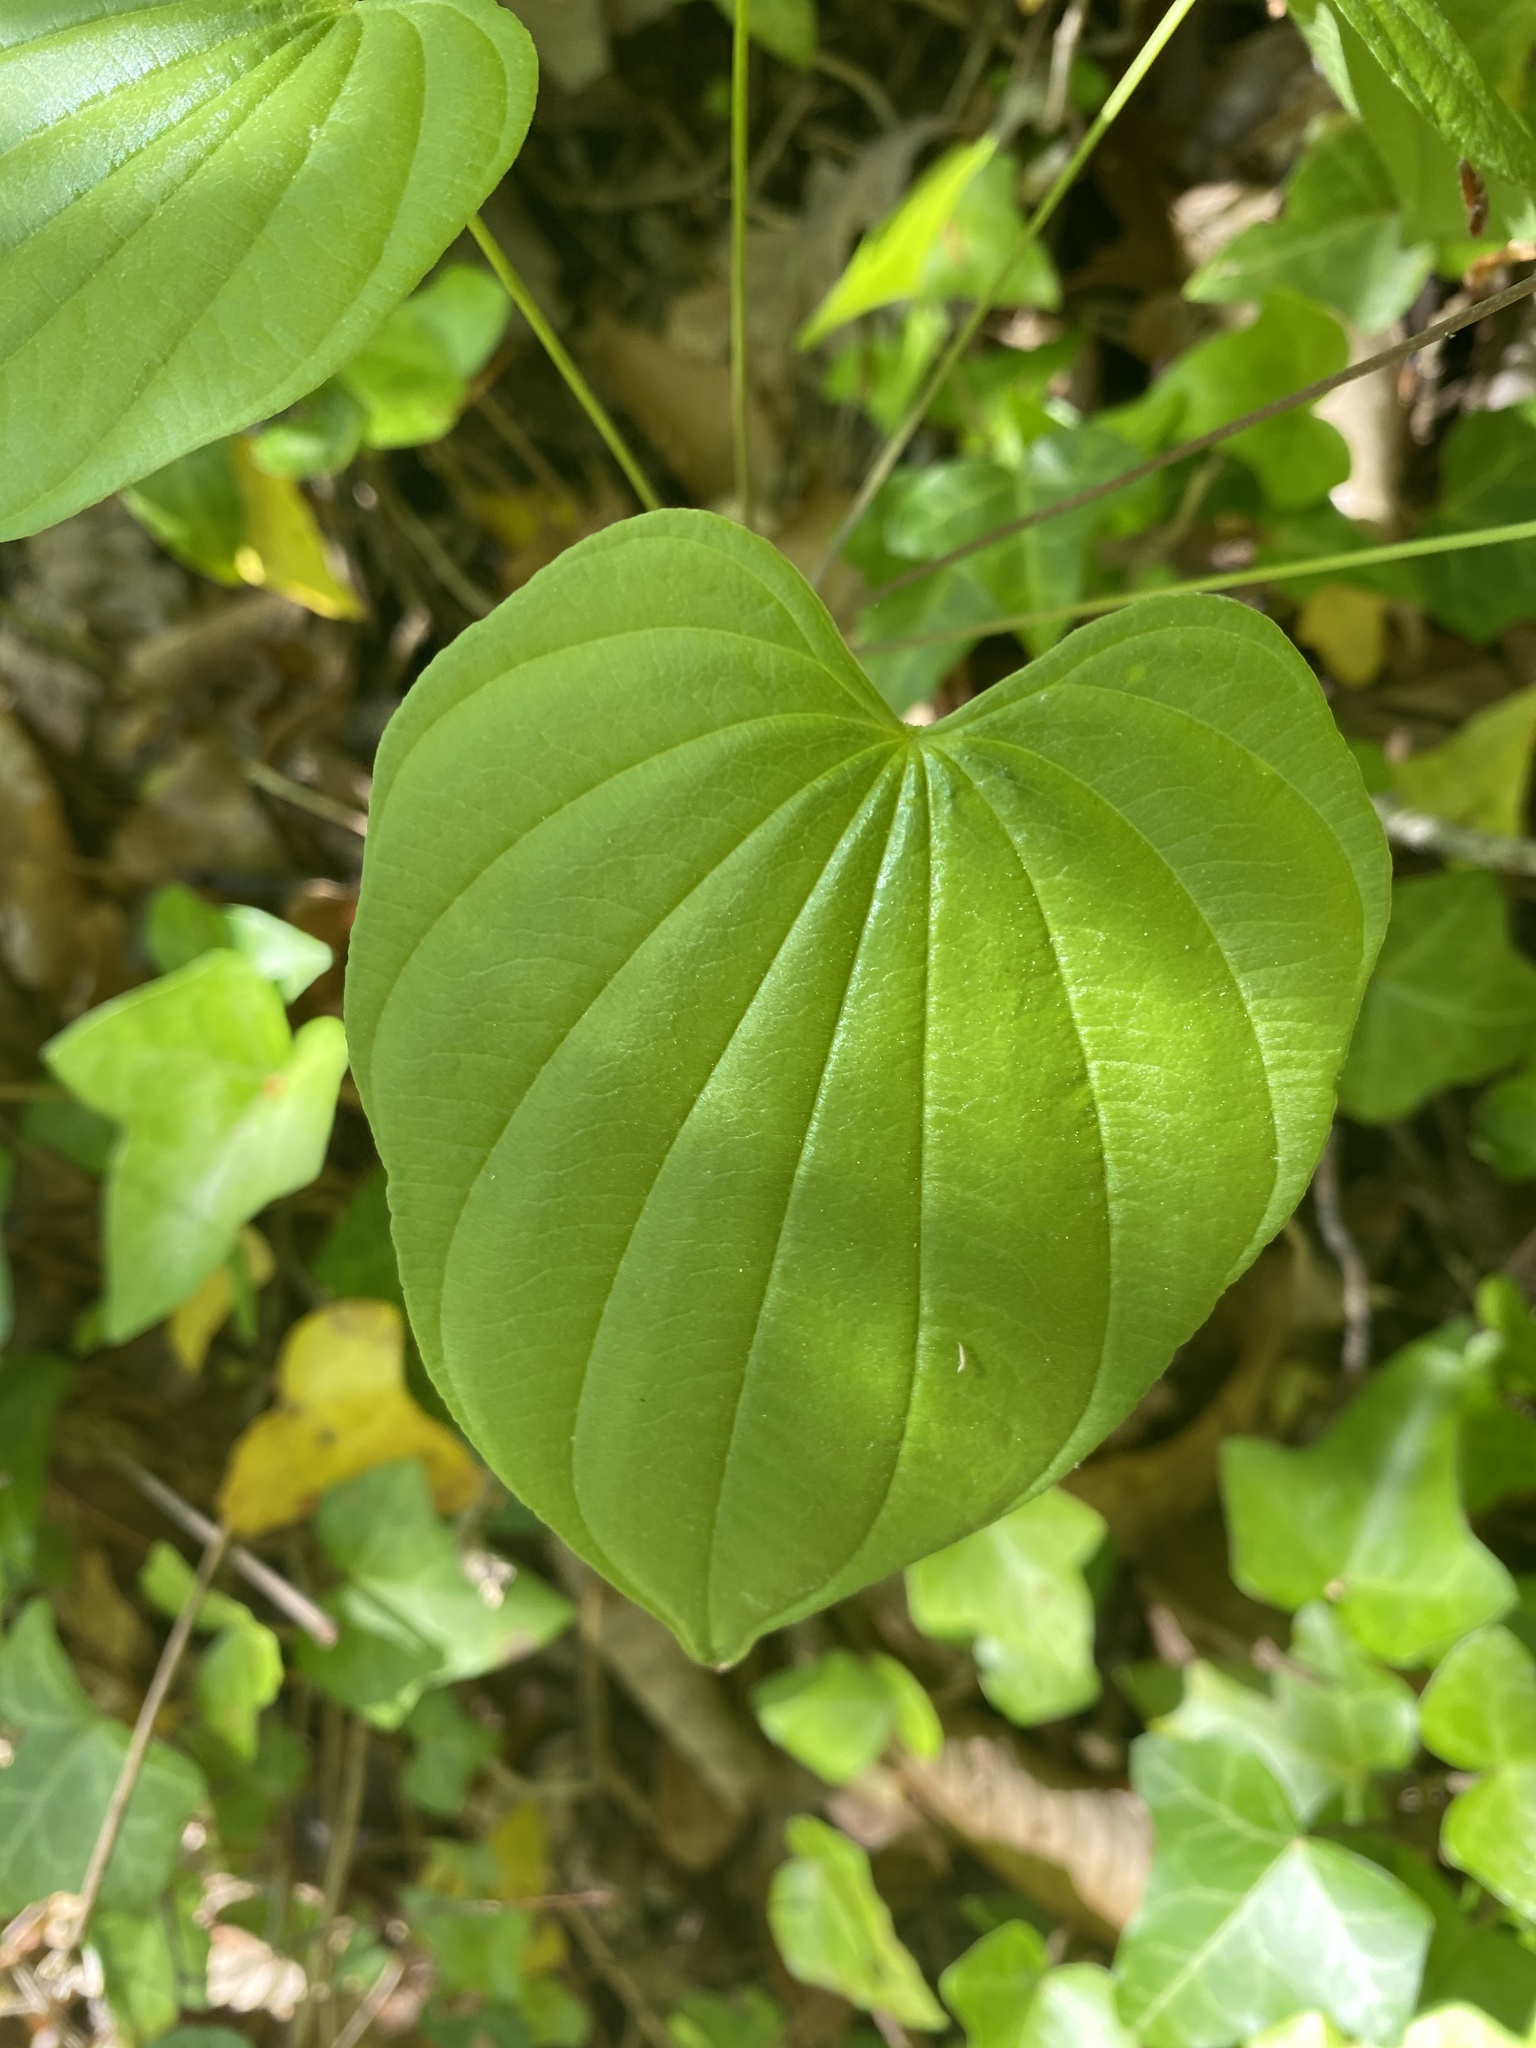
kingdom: Plantae
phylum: Tracheophyta
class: Liliopsida
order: Dioscoreales
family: Dioscoreaceae
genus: Dioscorea
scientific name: Dioscorea villosa
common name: Wild yam
